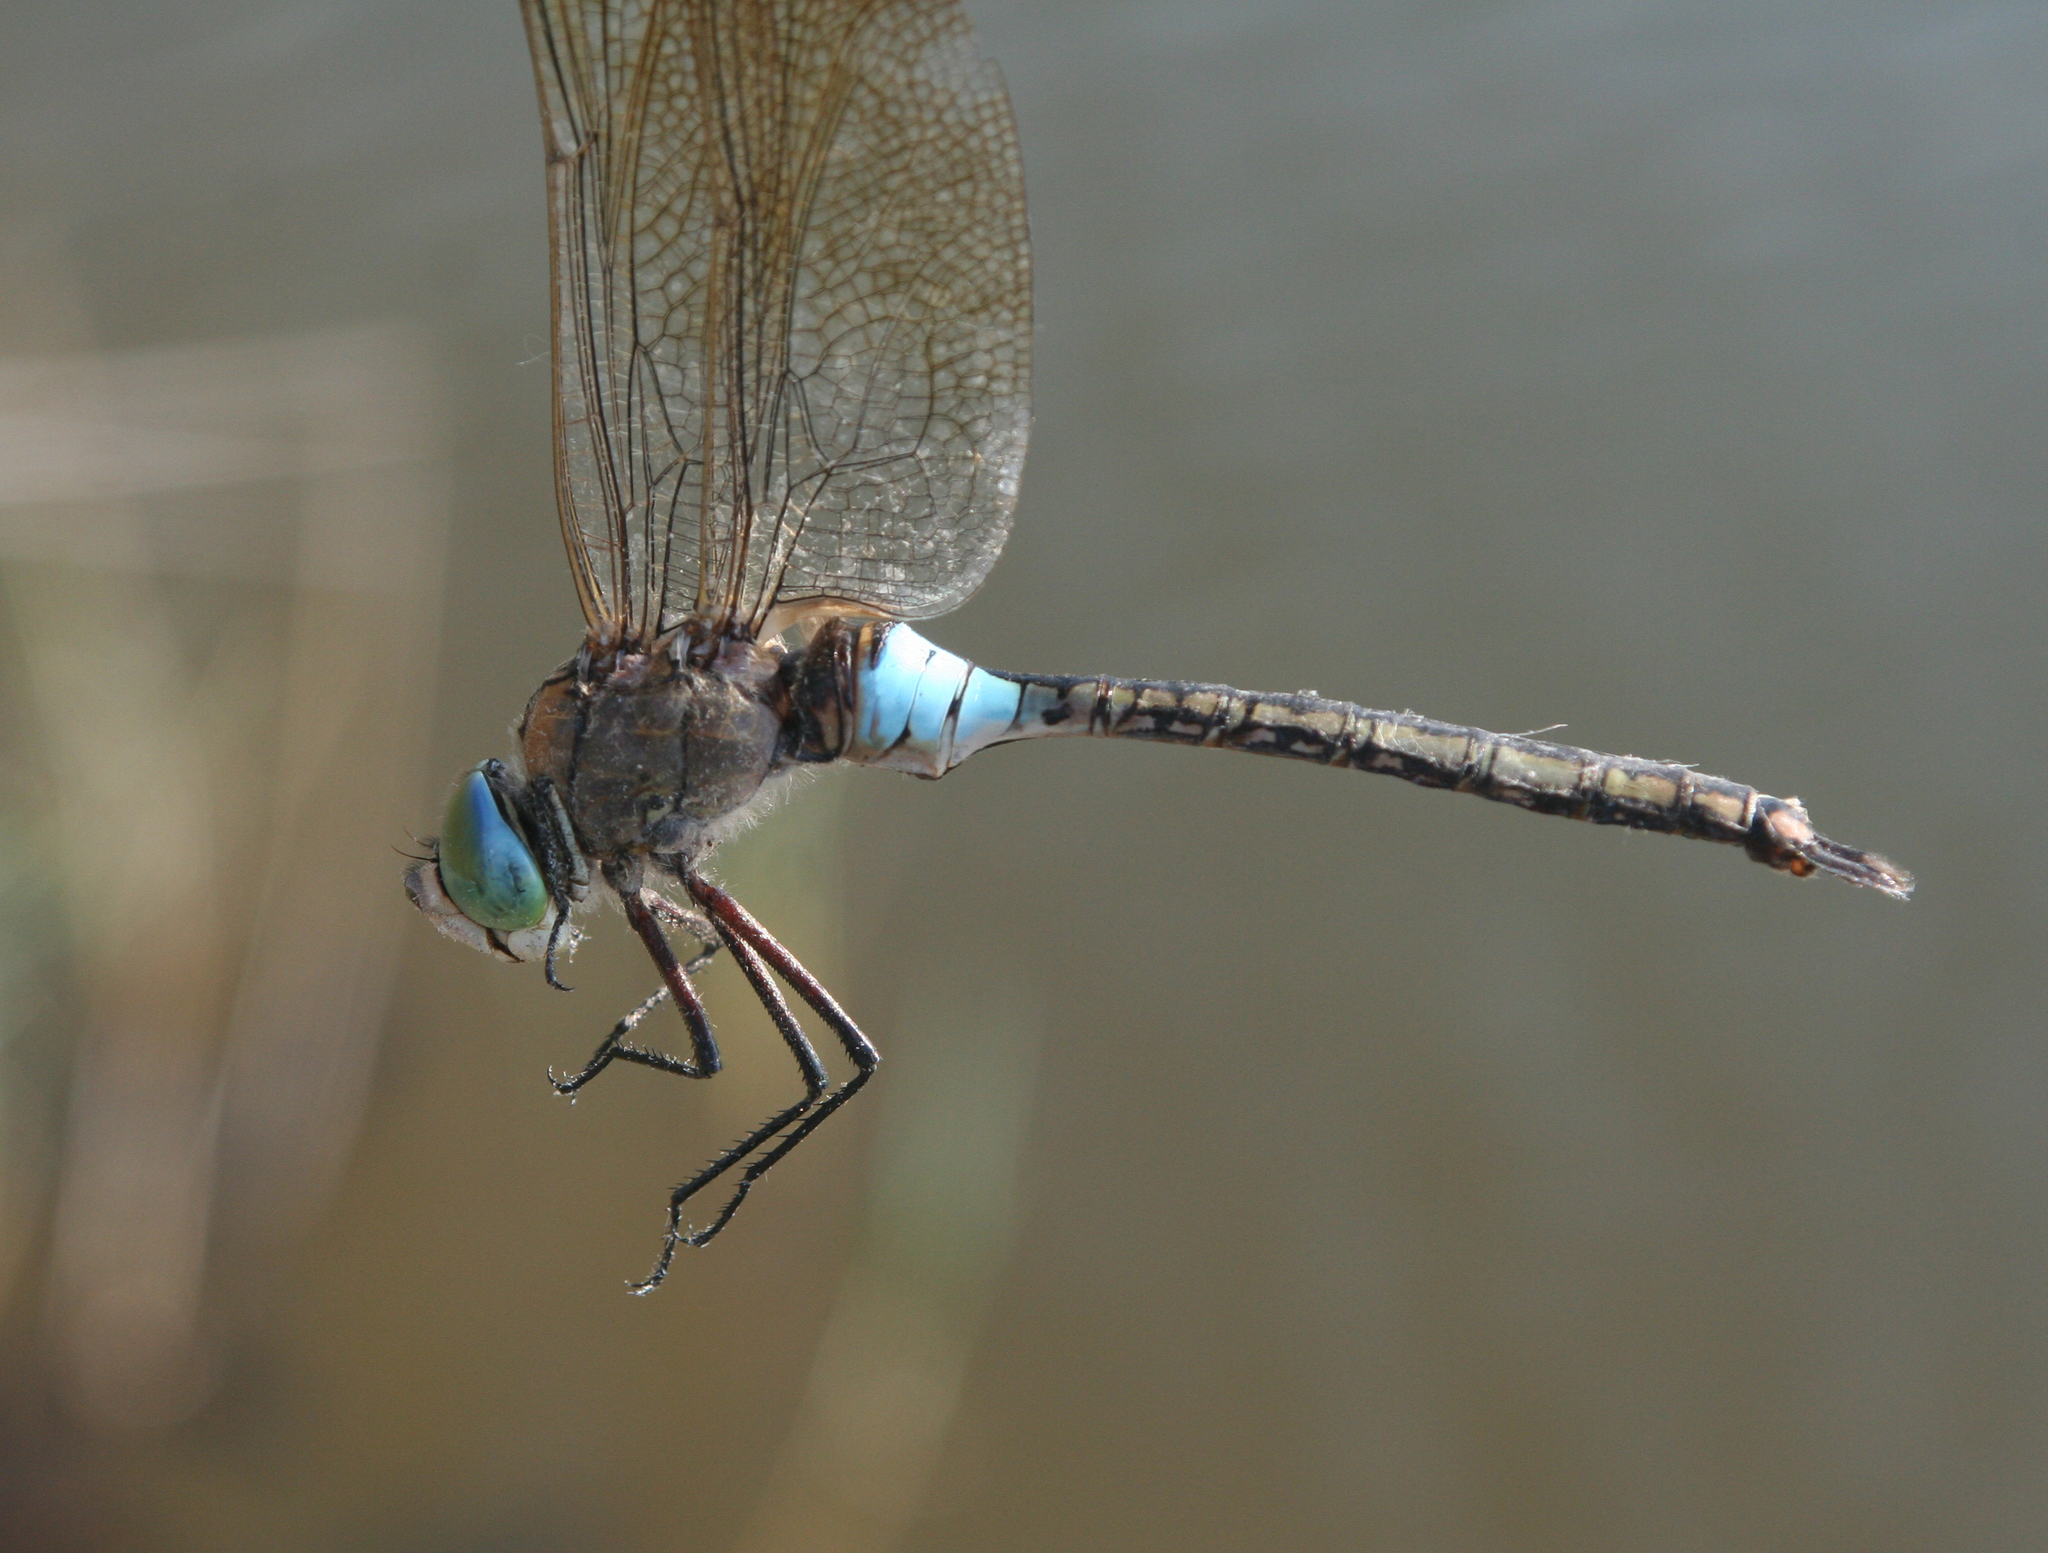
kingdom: Animalia
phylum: Arthropoda
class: Insecta
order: Odonata
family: Aeshnidae
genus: Anax
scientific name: Anax parthenope
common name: Lesser emperor
